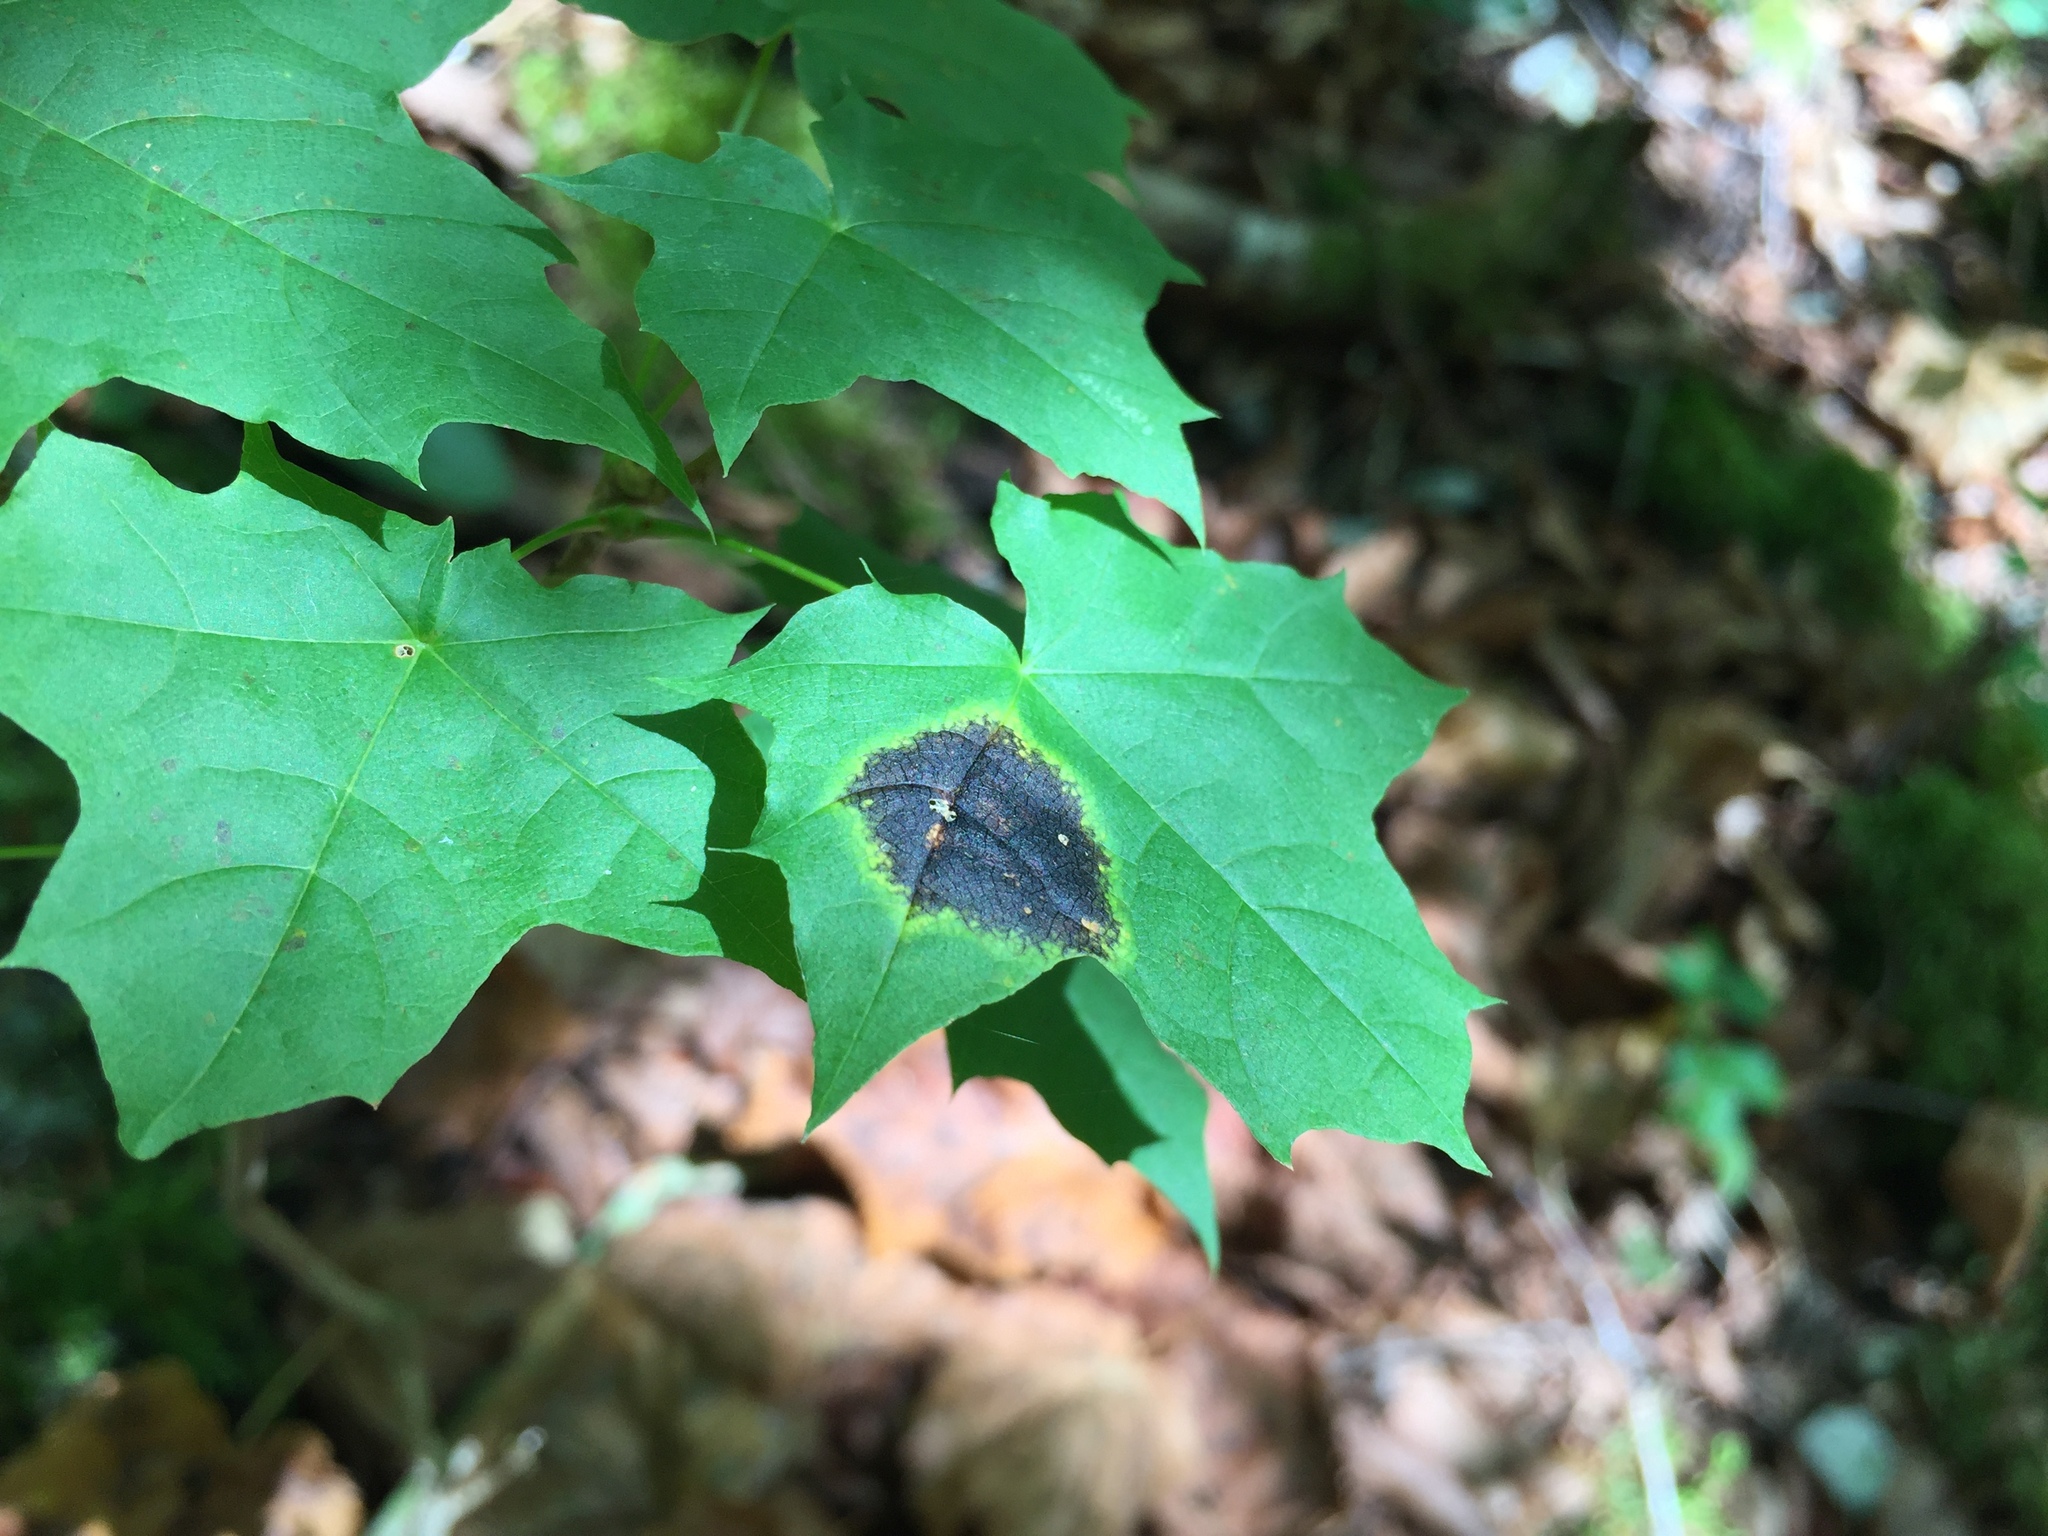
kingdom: Fungi
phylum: Ascomycota
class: Leotiomycetes
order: Rhytismatales
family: Rhytismataceae
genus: Rhytisma
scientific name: Rhytisma acerinum
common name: European tar spot
